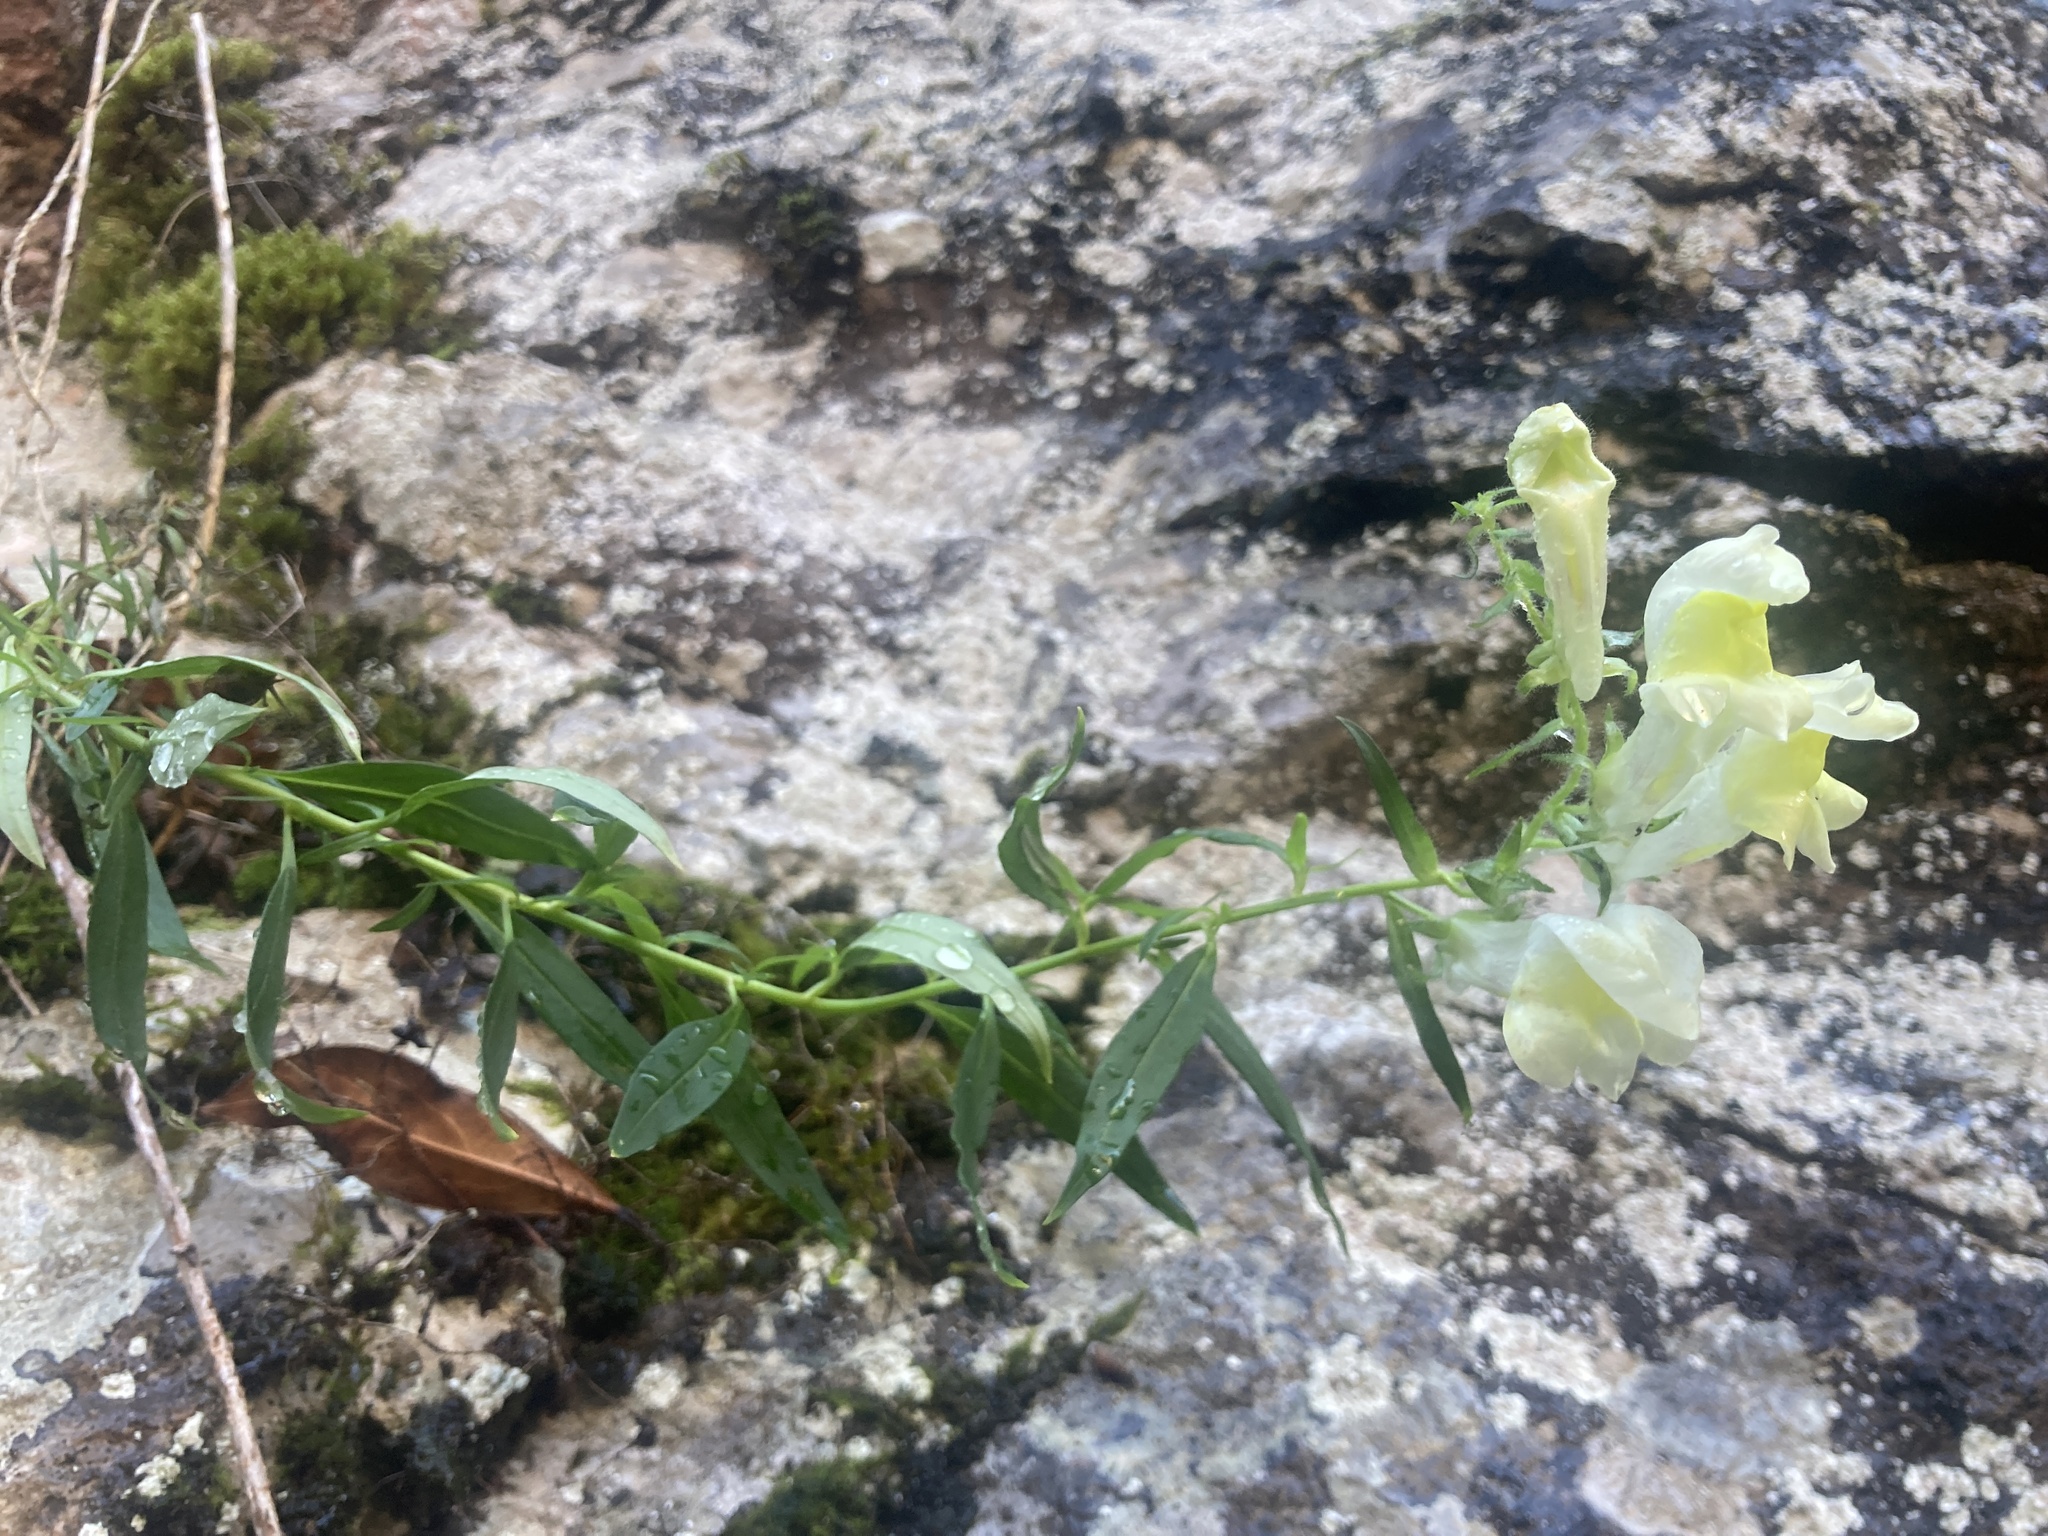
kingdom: Plantae
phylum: Tracheophyta
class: Magnoliopsida
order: Lamiales
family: Plantaginaceae
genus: Antirrhinum
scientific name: Antirrhinum braun-blanquetii
